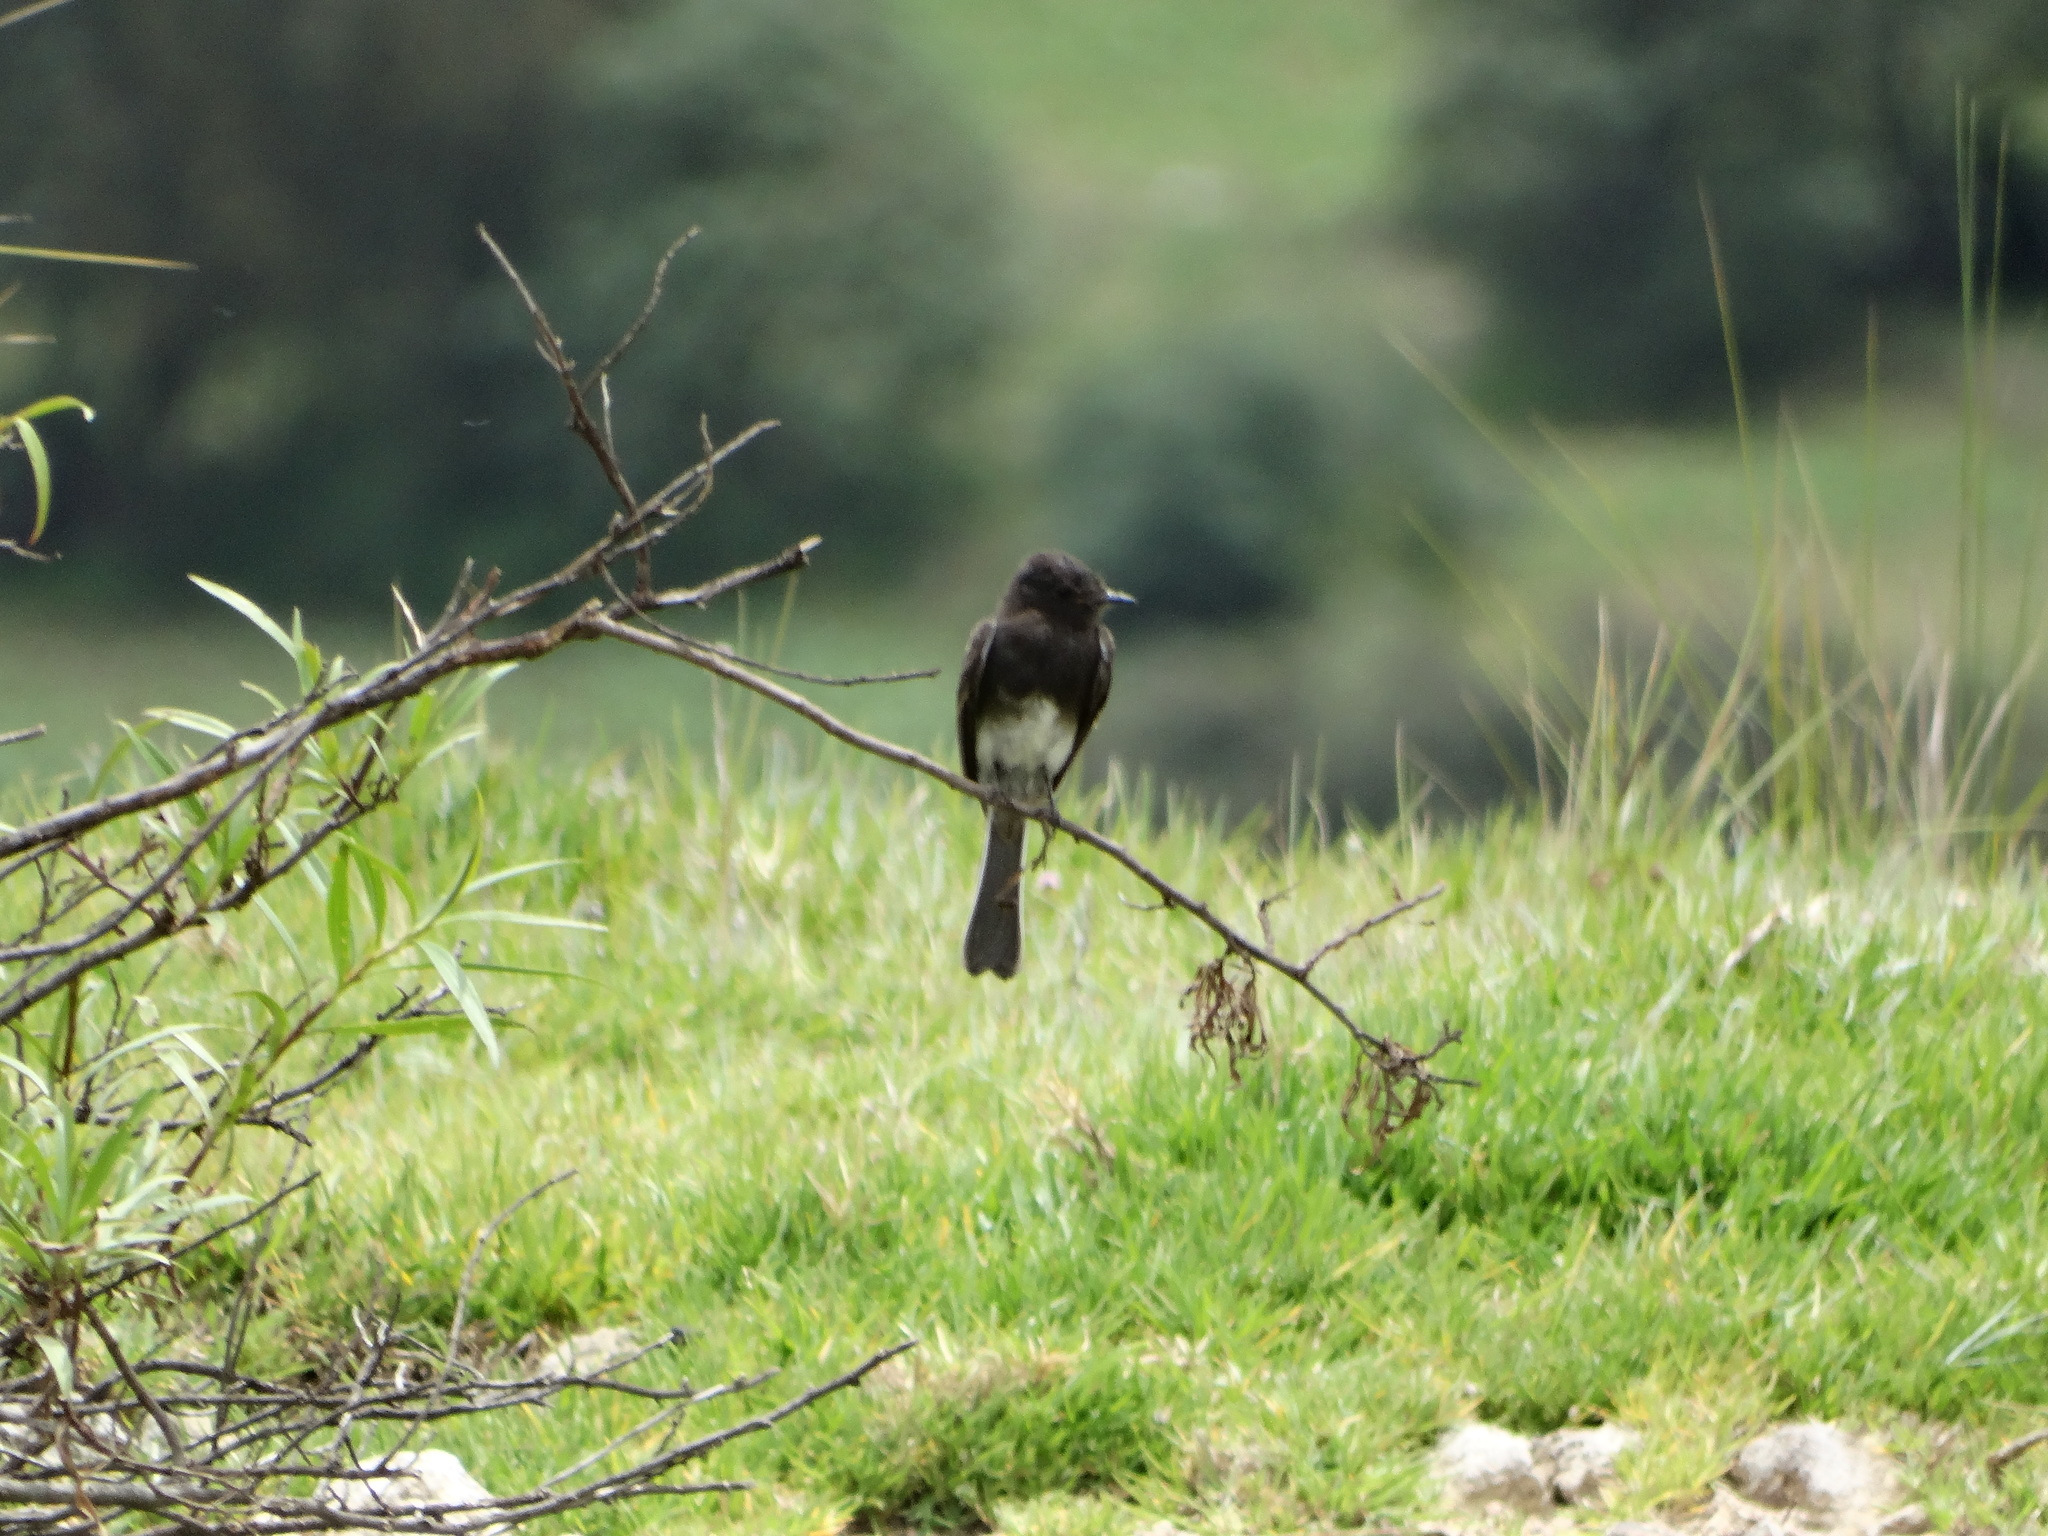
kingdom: Animalia
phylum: Chordata
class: Aves
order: Passeriformes
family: Tyrannidae
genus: Sayornis
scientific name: Sayornis nigricans
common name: Black phoebe
